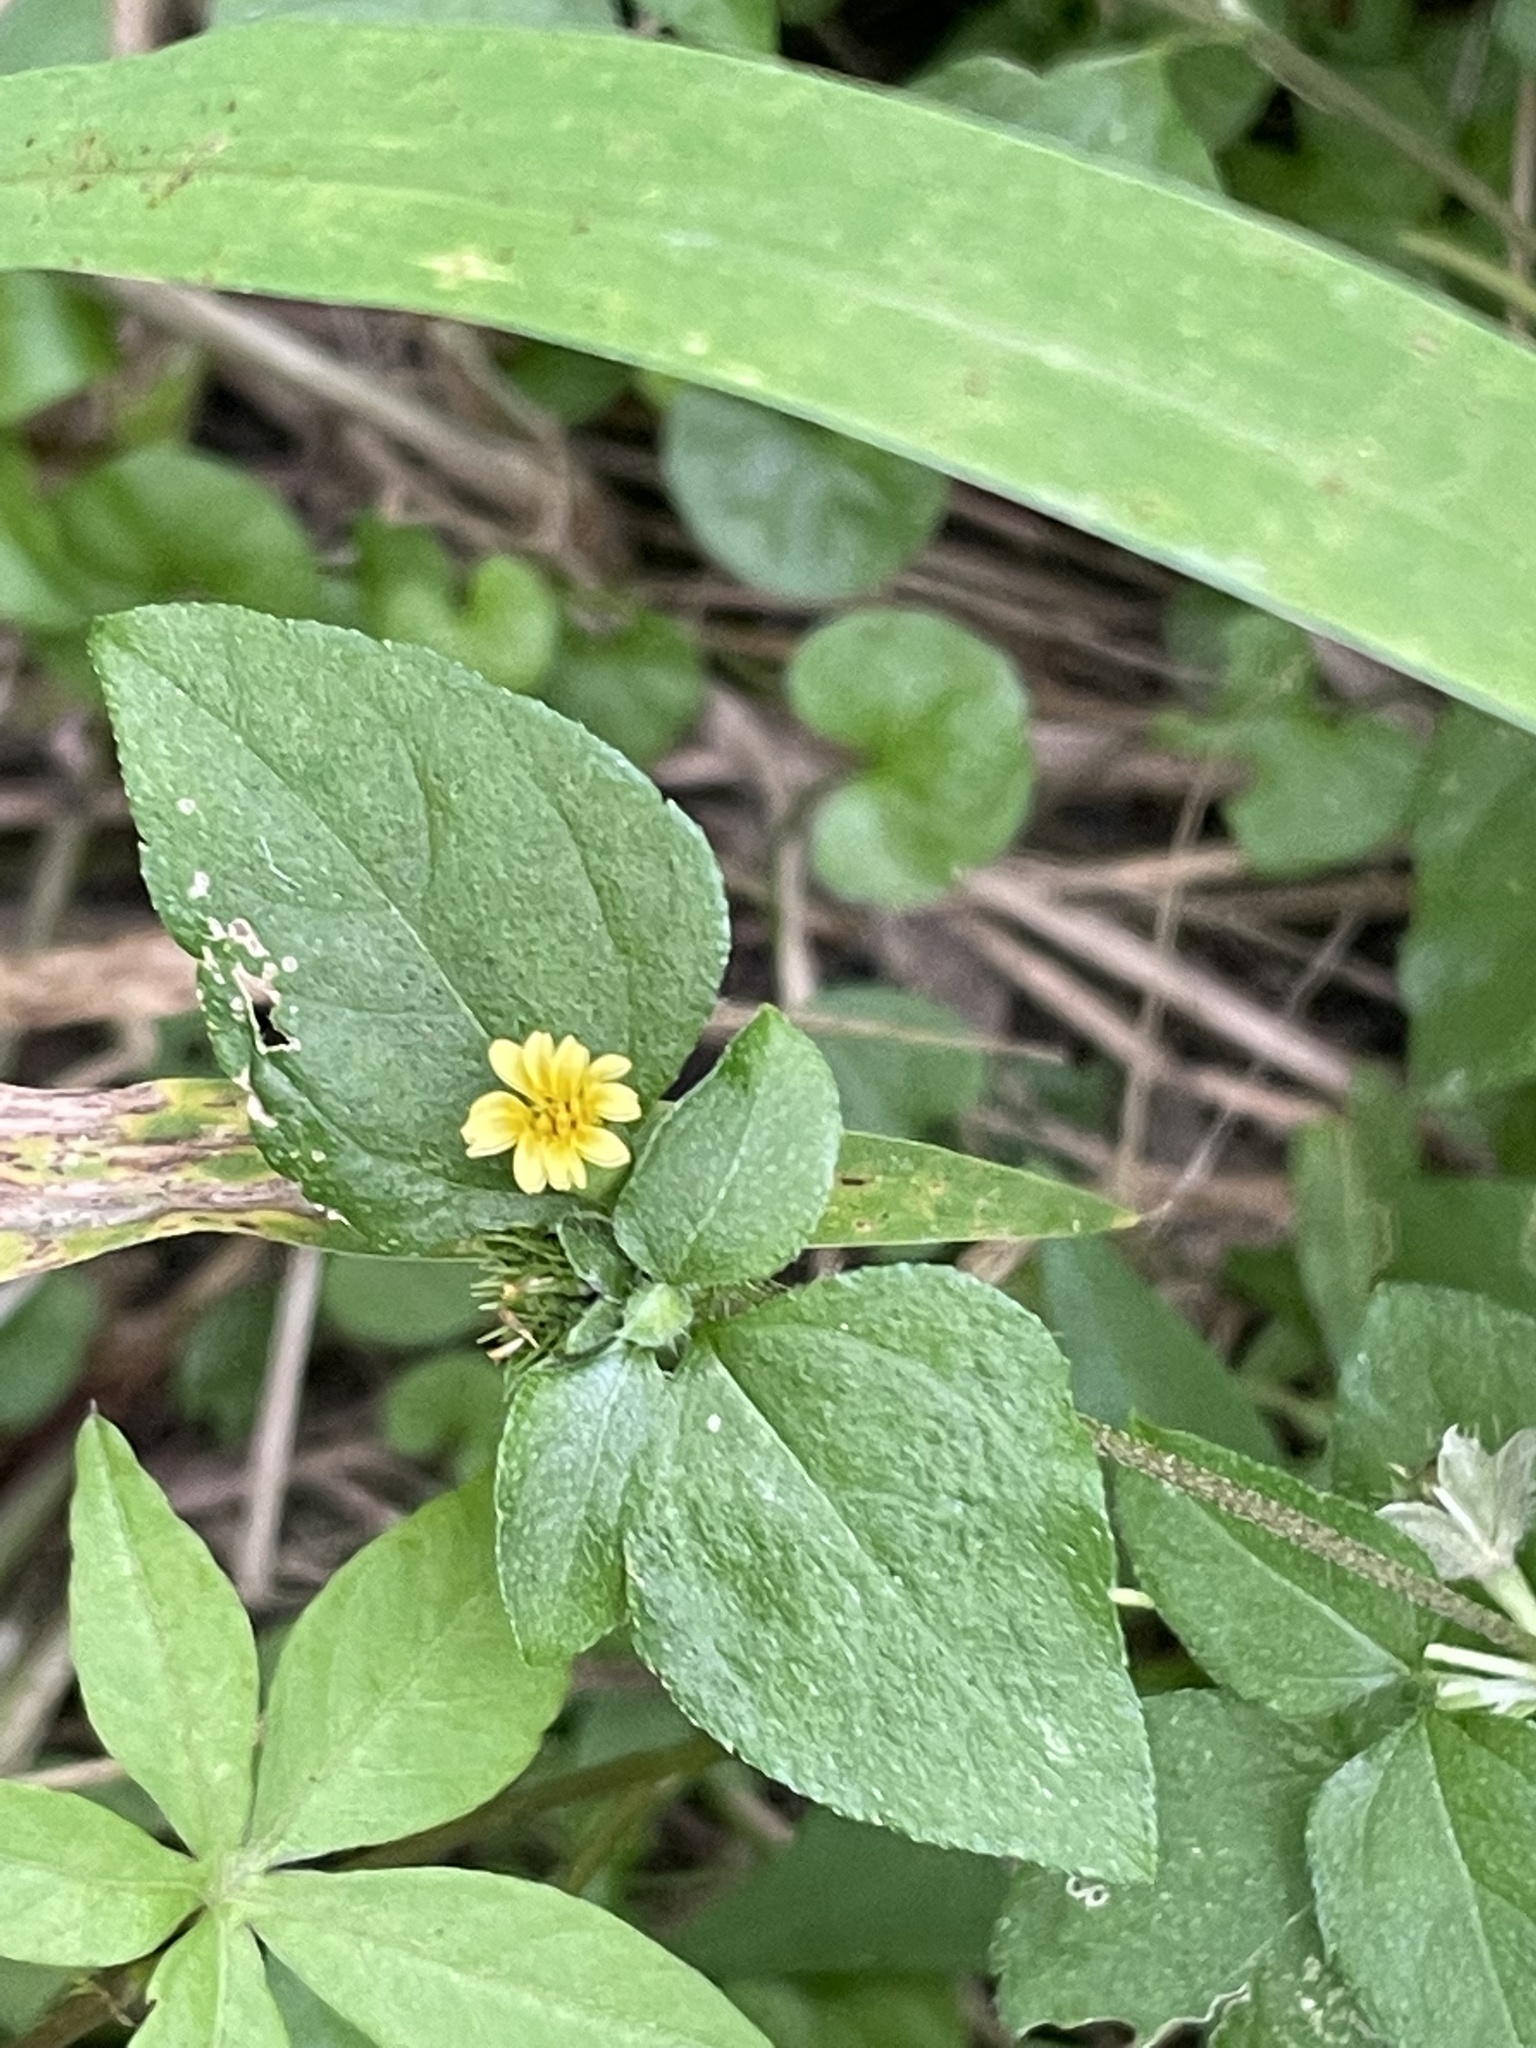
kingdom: Plantae
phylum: Tracheophyta
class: Magnoliopsida
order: Asterales
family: Asteraceae
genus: Calyptocarpus
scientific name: Calyptocarpus vialis
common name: Straggler daisy
